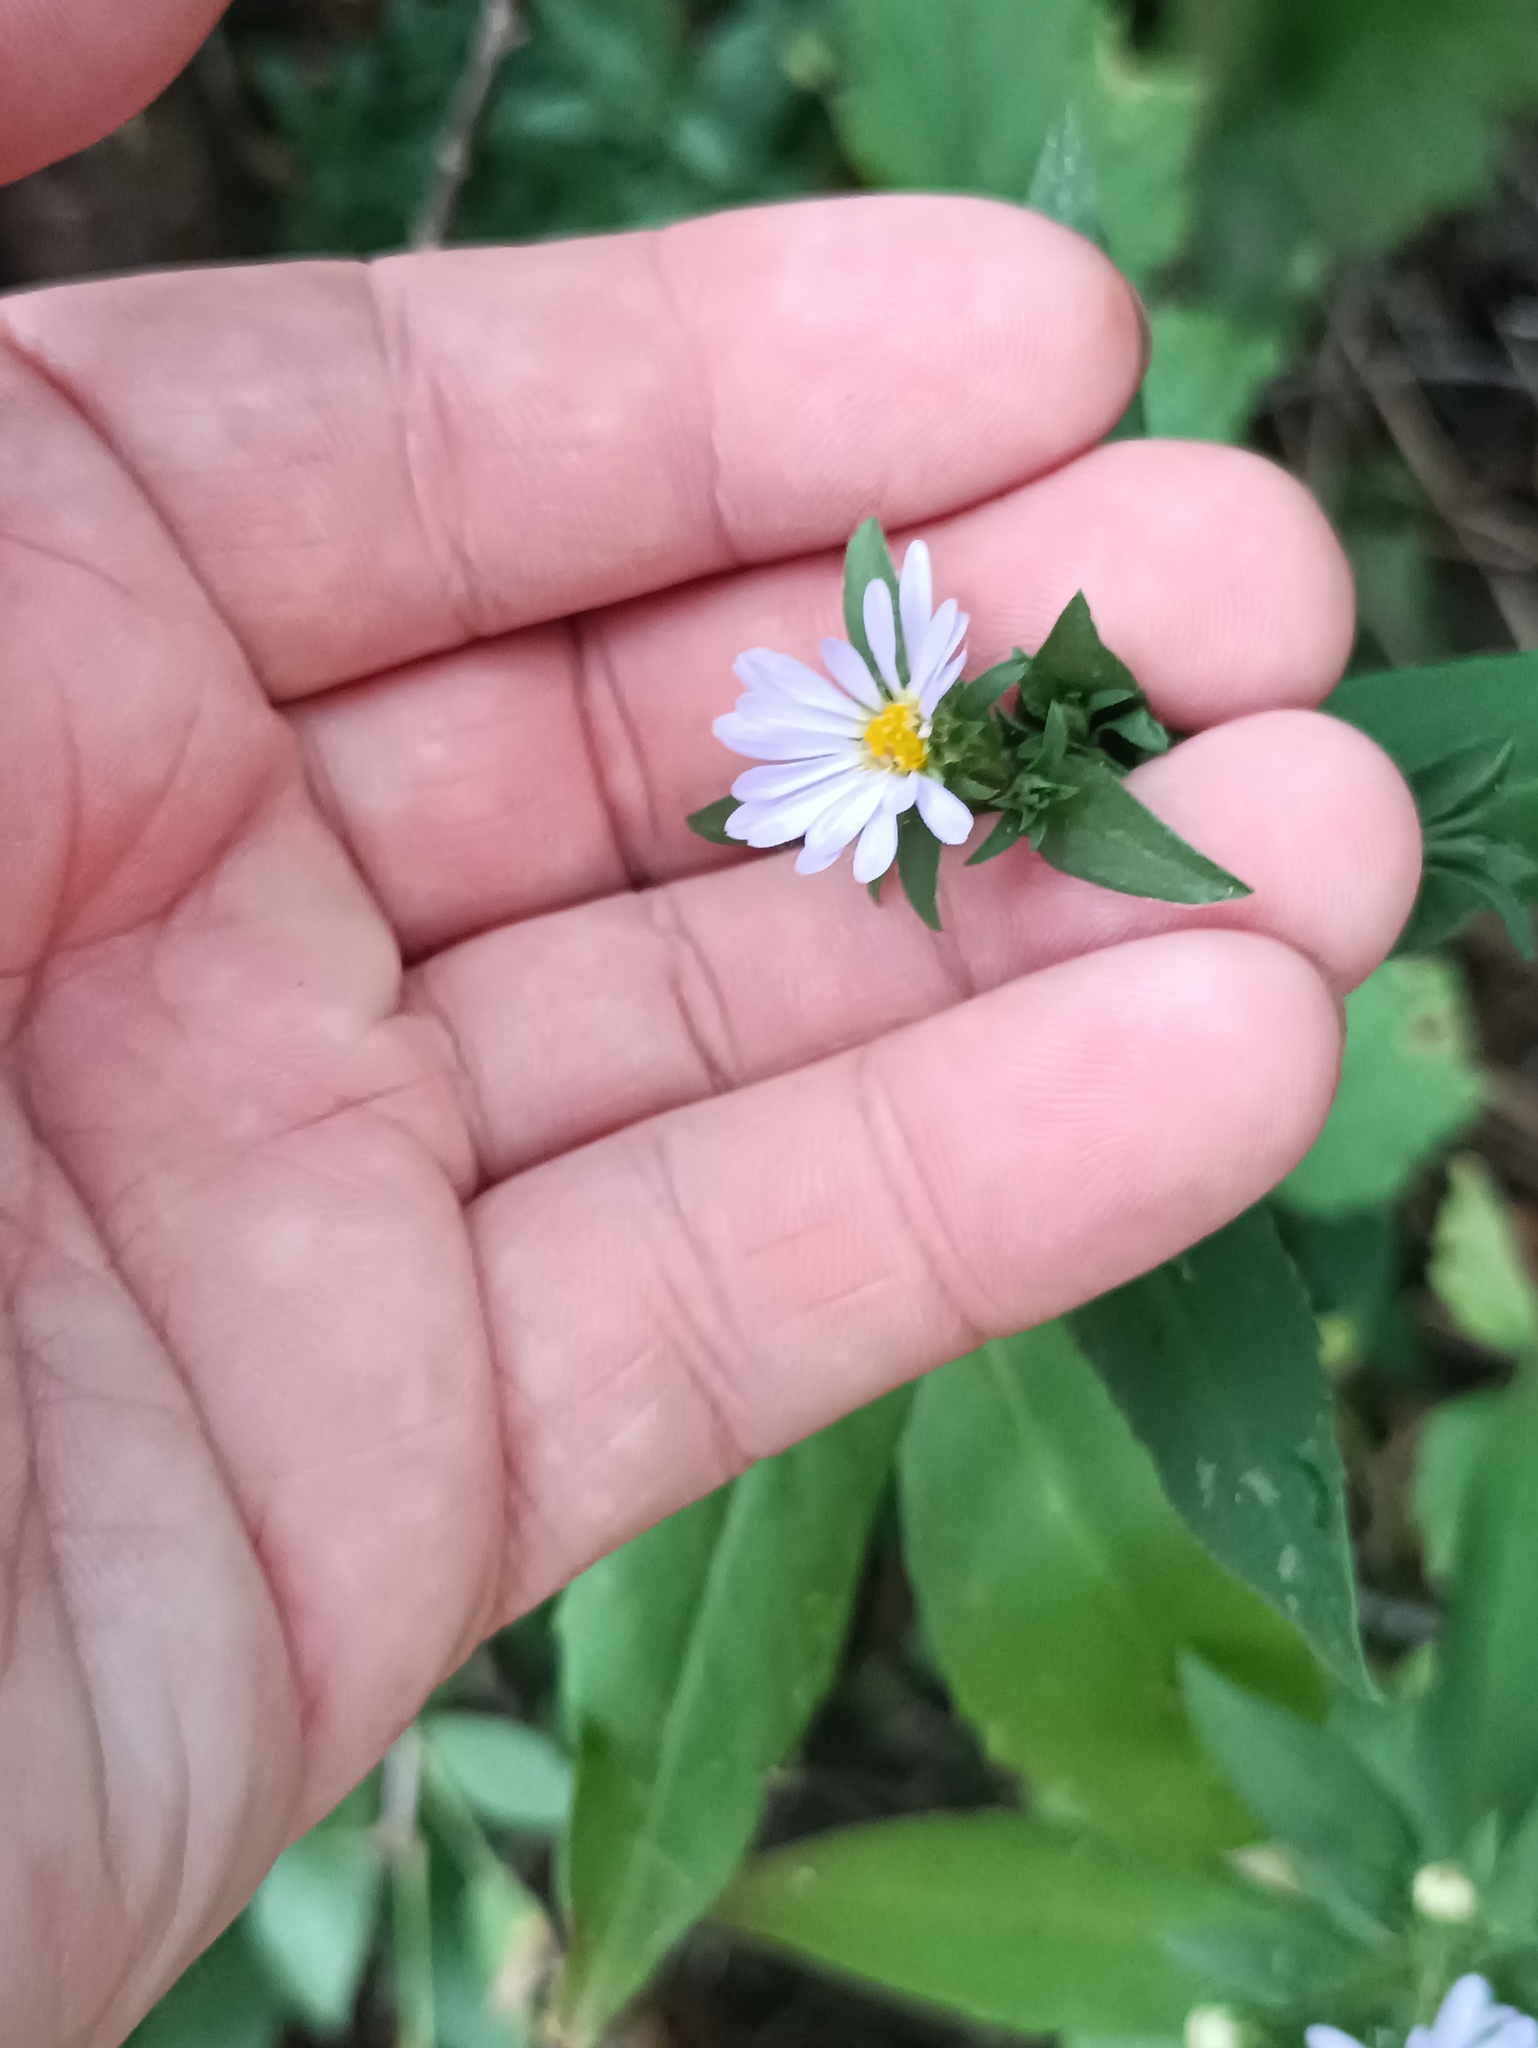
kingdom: Plantae
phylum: Tracheophyta
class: Magnoliopsida
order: Asterales
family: Asteraceae
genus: Symphyotrichum
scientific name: Symphyotrichum novi-belgii
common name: Michaelmas daisy
